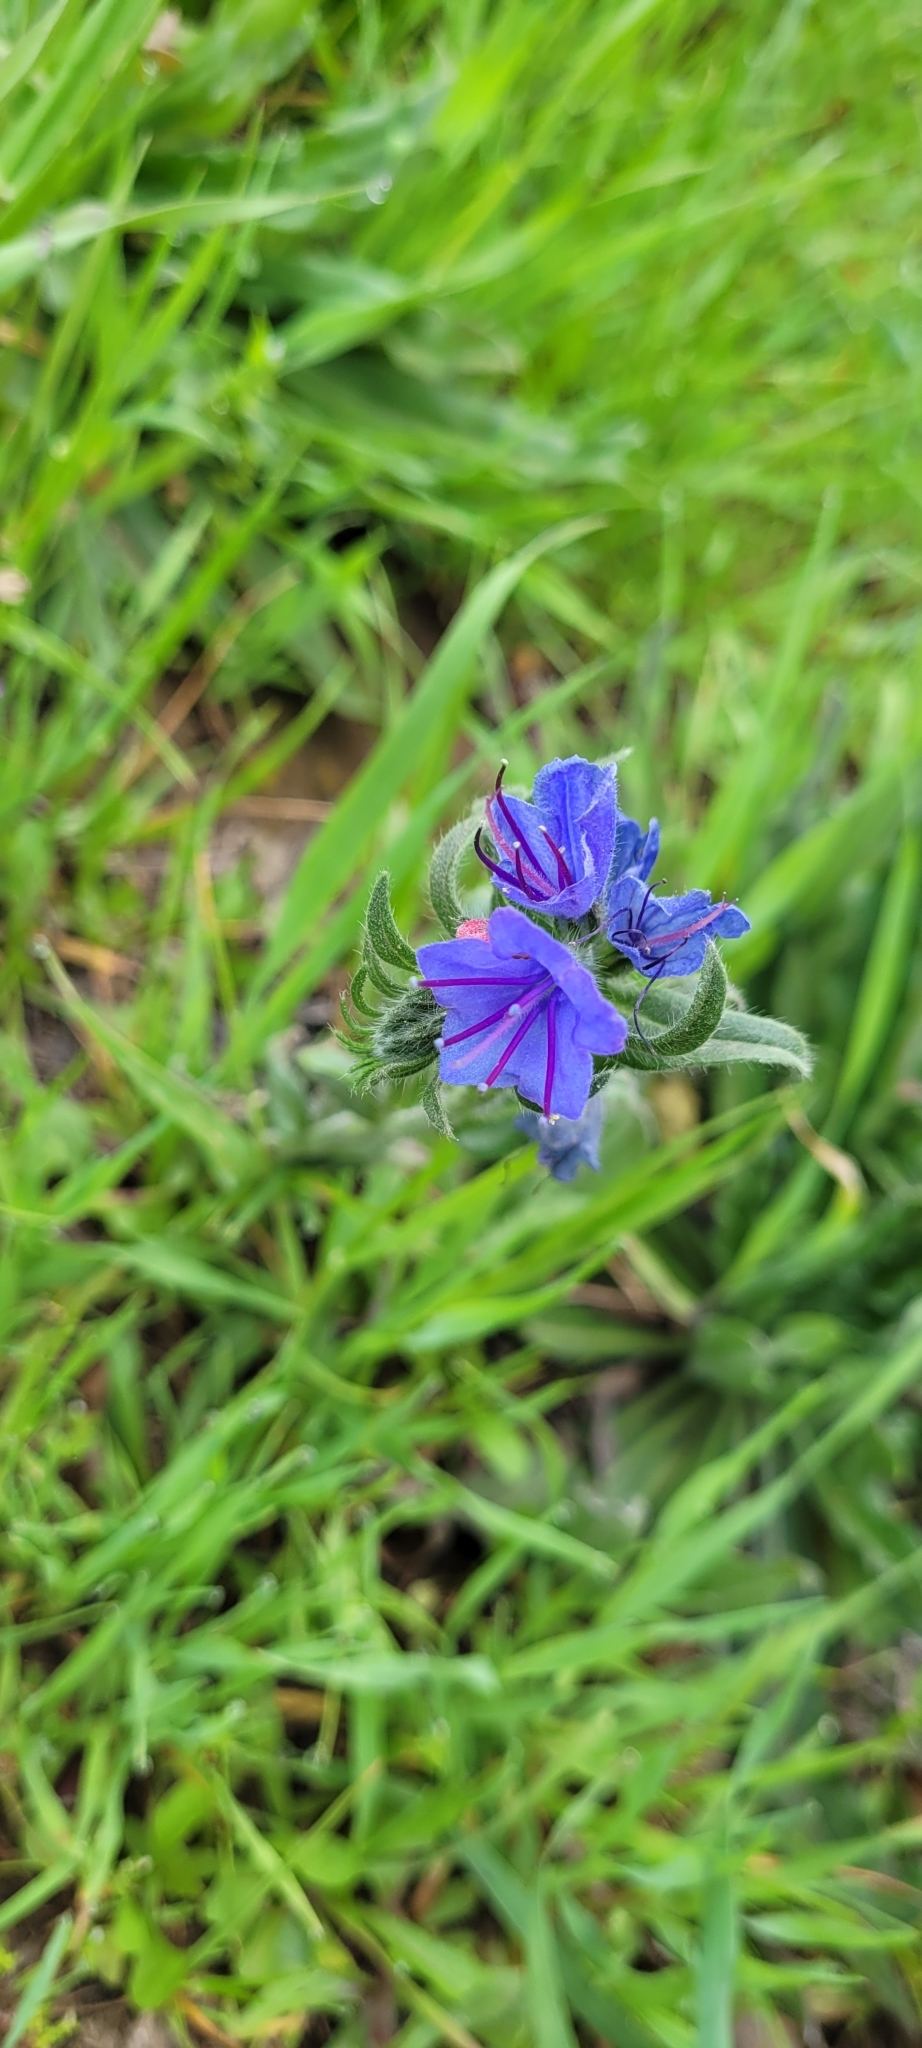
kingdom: Plantae
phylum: Tracheophyta
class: Magnoliopsida
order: Boraginales
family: Boraginaceae
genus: Echium
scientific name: Echium vulgare
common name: Common viper's bugloss
